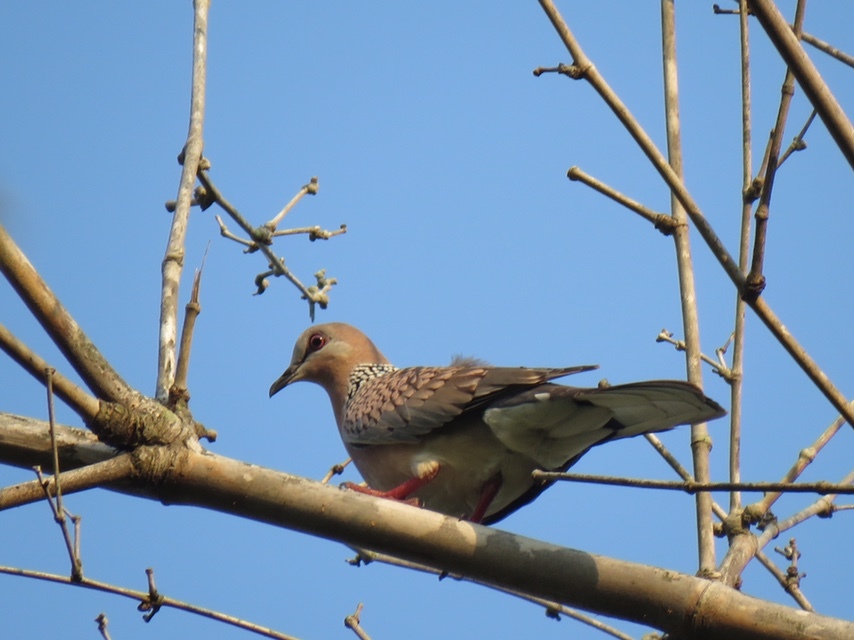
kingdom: Animalia
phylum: Chordata
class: Aves
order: Columbiformes
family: Columbidae
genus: Spilopelia
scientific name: Spilopelia chinensis
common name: Spotted dove
